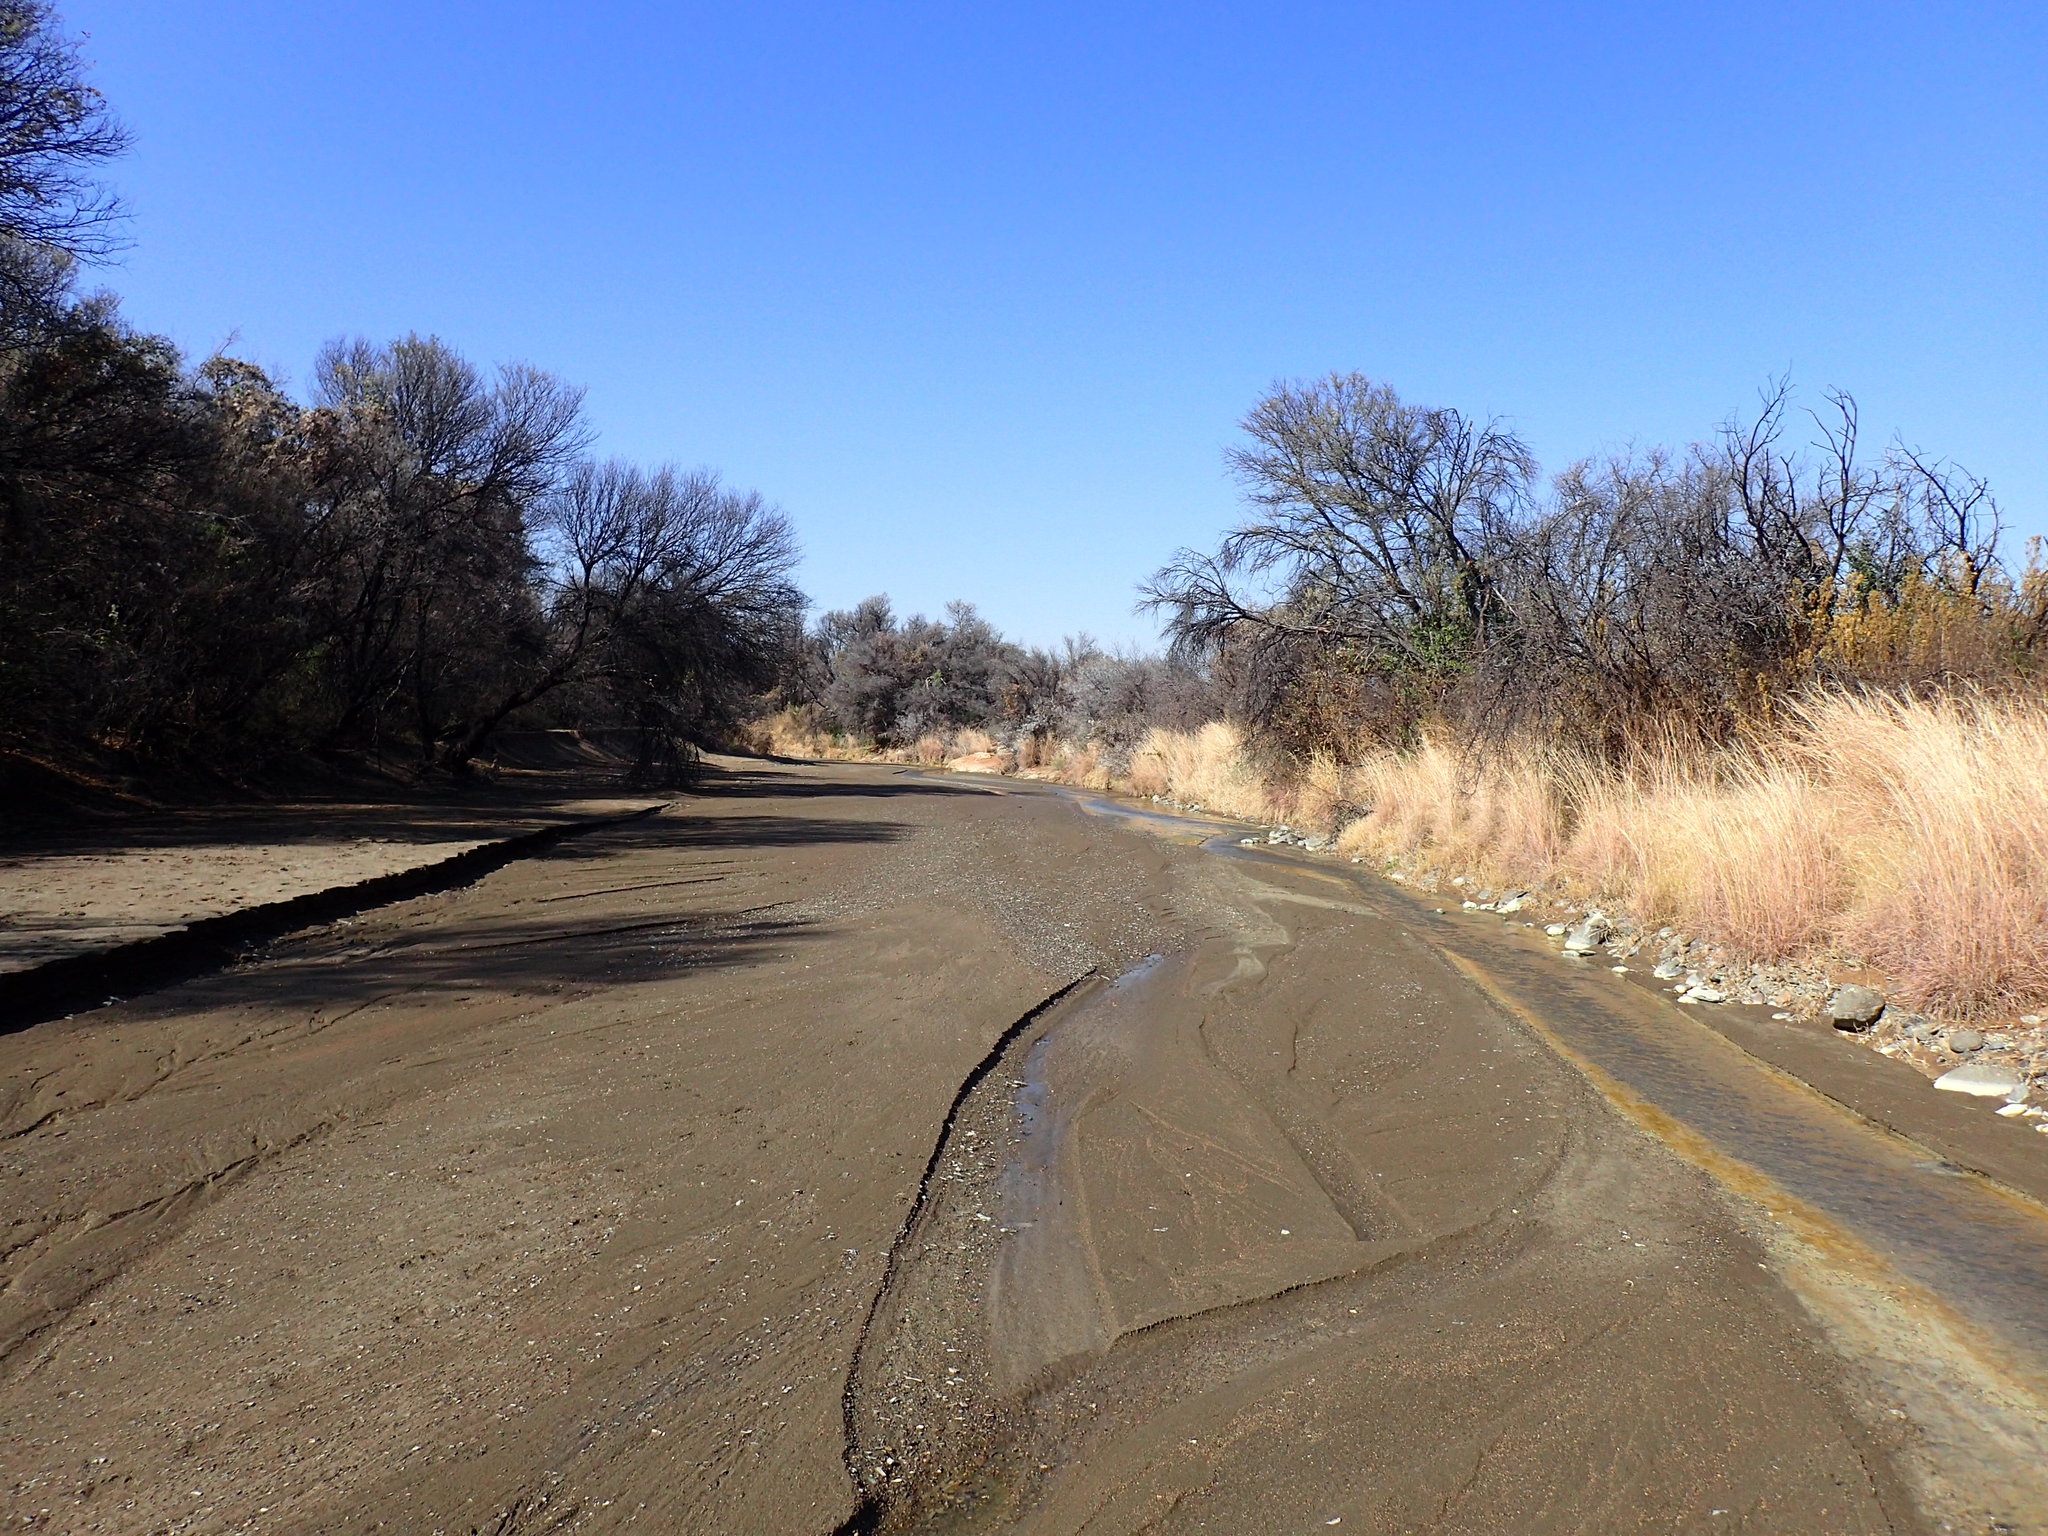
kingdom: Plantae
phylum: Tracheophyta
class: Magnoliopsida
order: Sapindales
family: Anacardiaceae
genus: Searsia
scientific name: Searsia lancea
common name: Cashew
